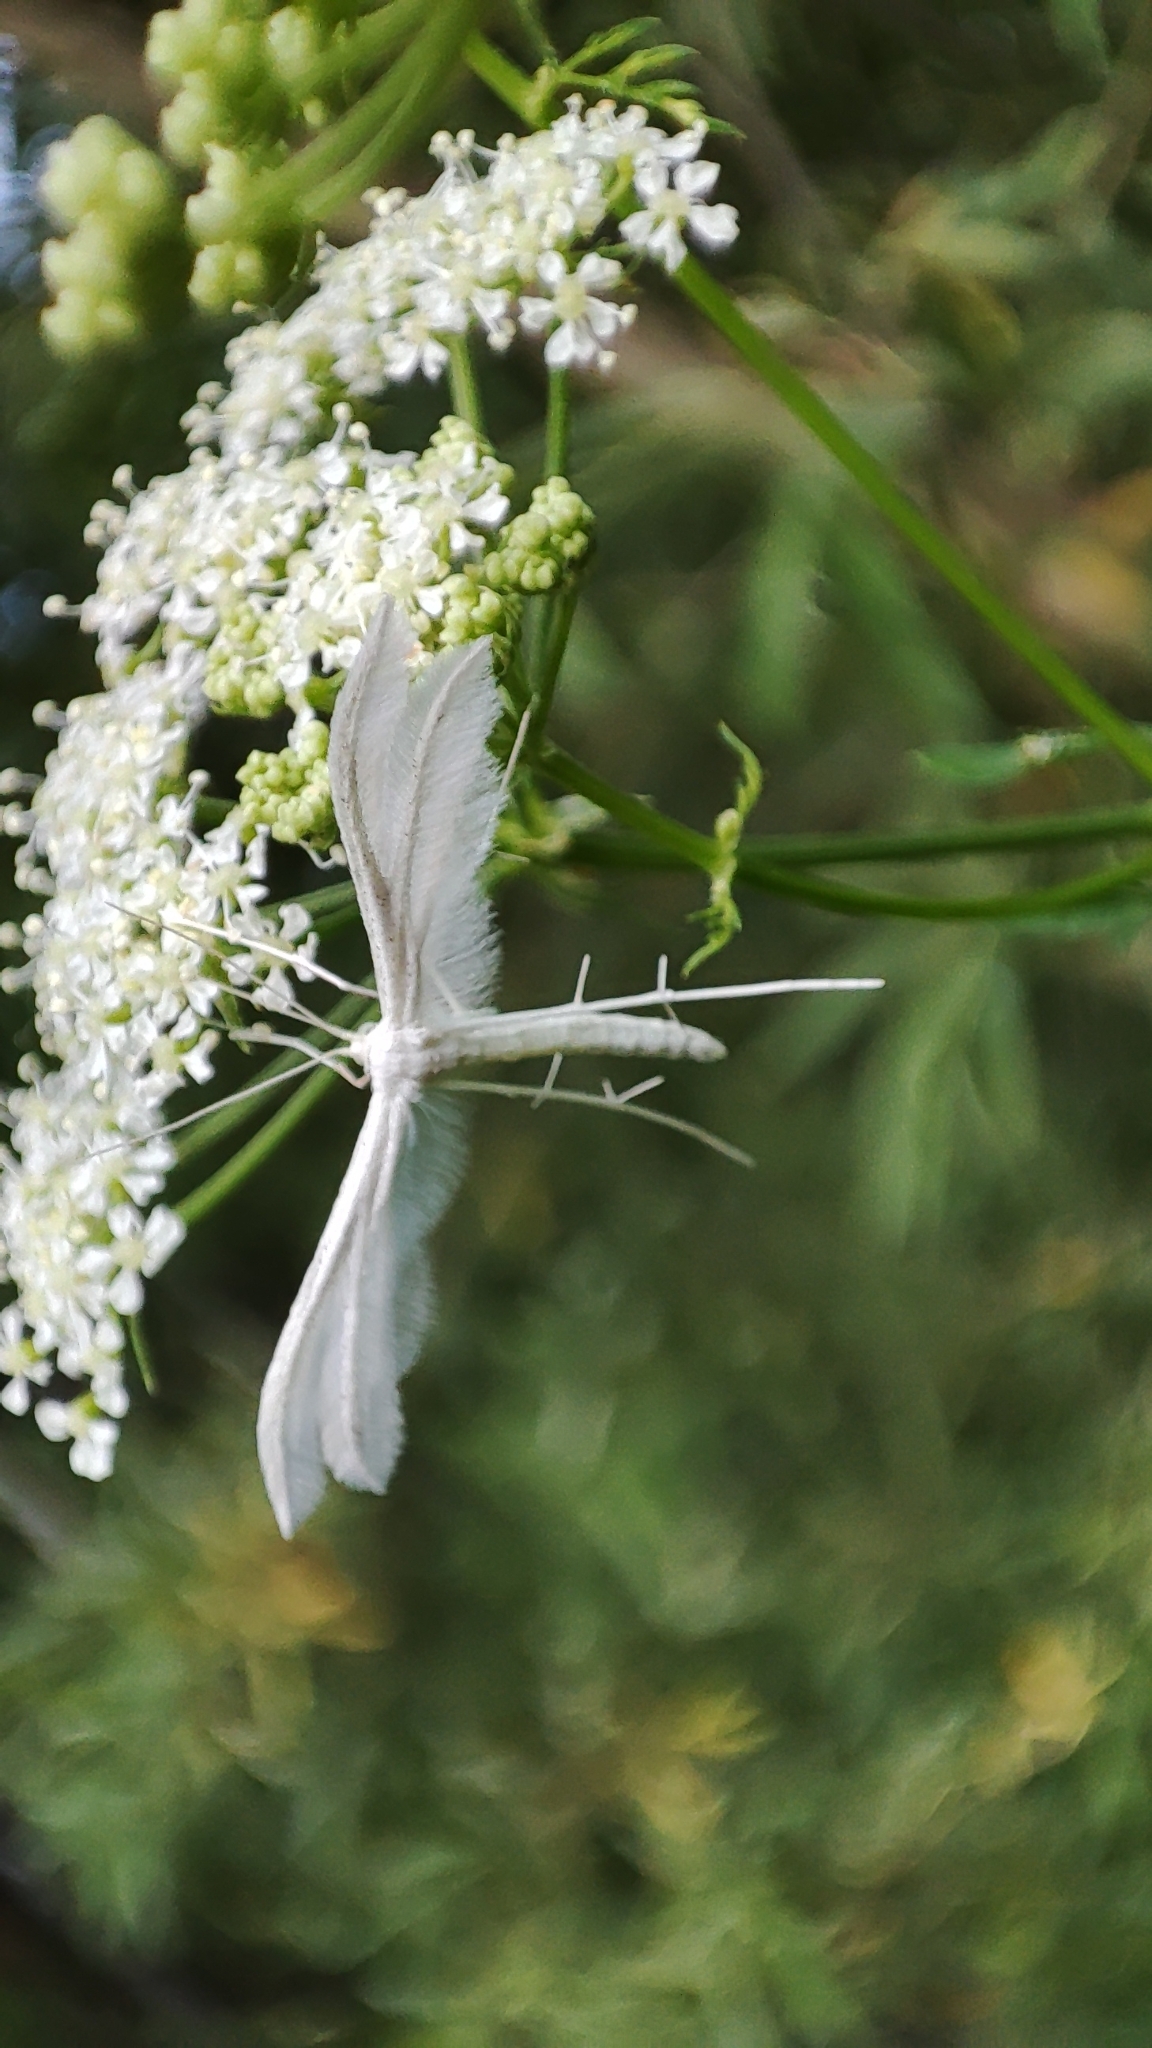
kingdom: Animalia
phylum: Arthropoda
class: Insecta
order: Lepidoptera
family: Pterophoridae
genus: Pterophorus
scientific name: Pterophorus pentadactyla
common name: White plume moth
